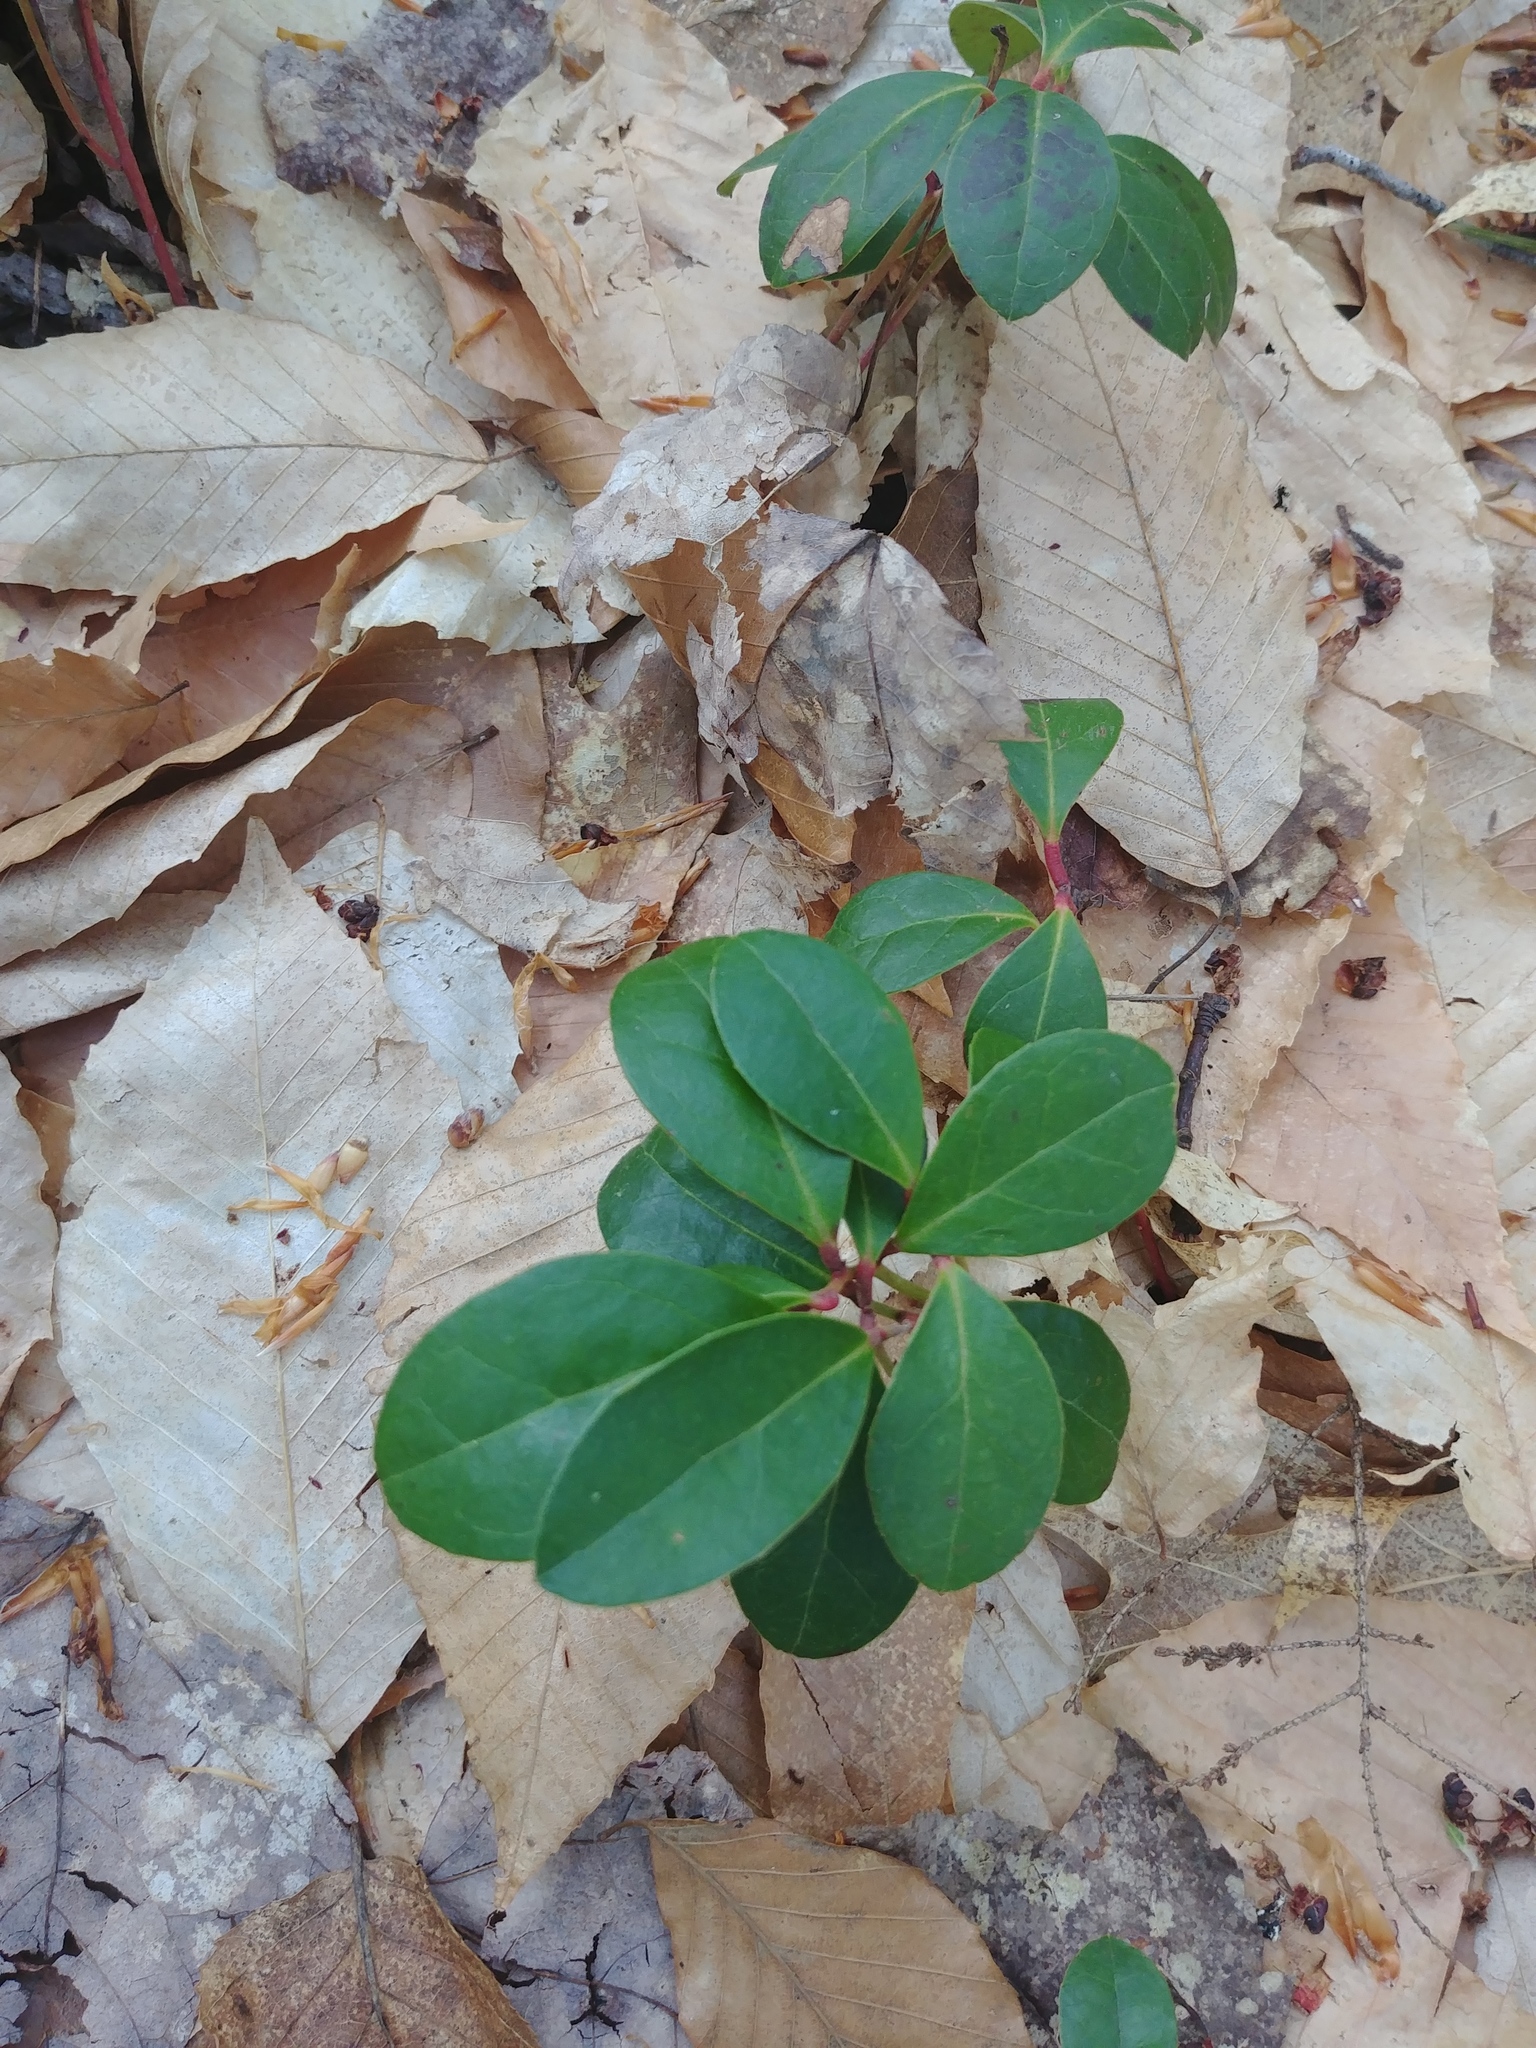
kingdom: Plantae
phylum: Tracheophyta
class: Magnoliopsida
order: Ericales
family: Ericaceae
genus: Gaultheria
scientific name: Gaultheria procumbens
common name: Checkerberry
